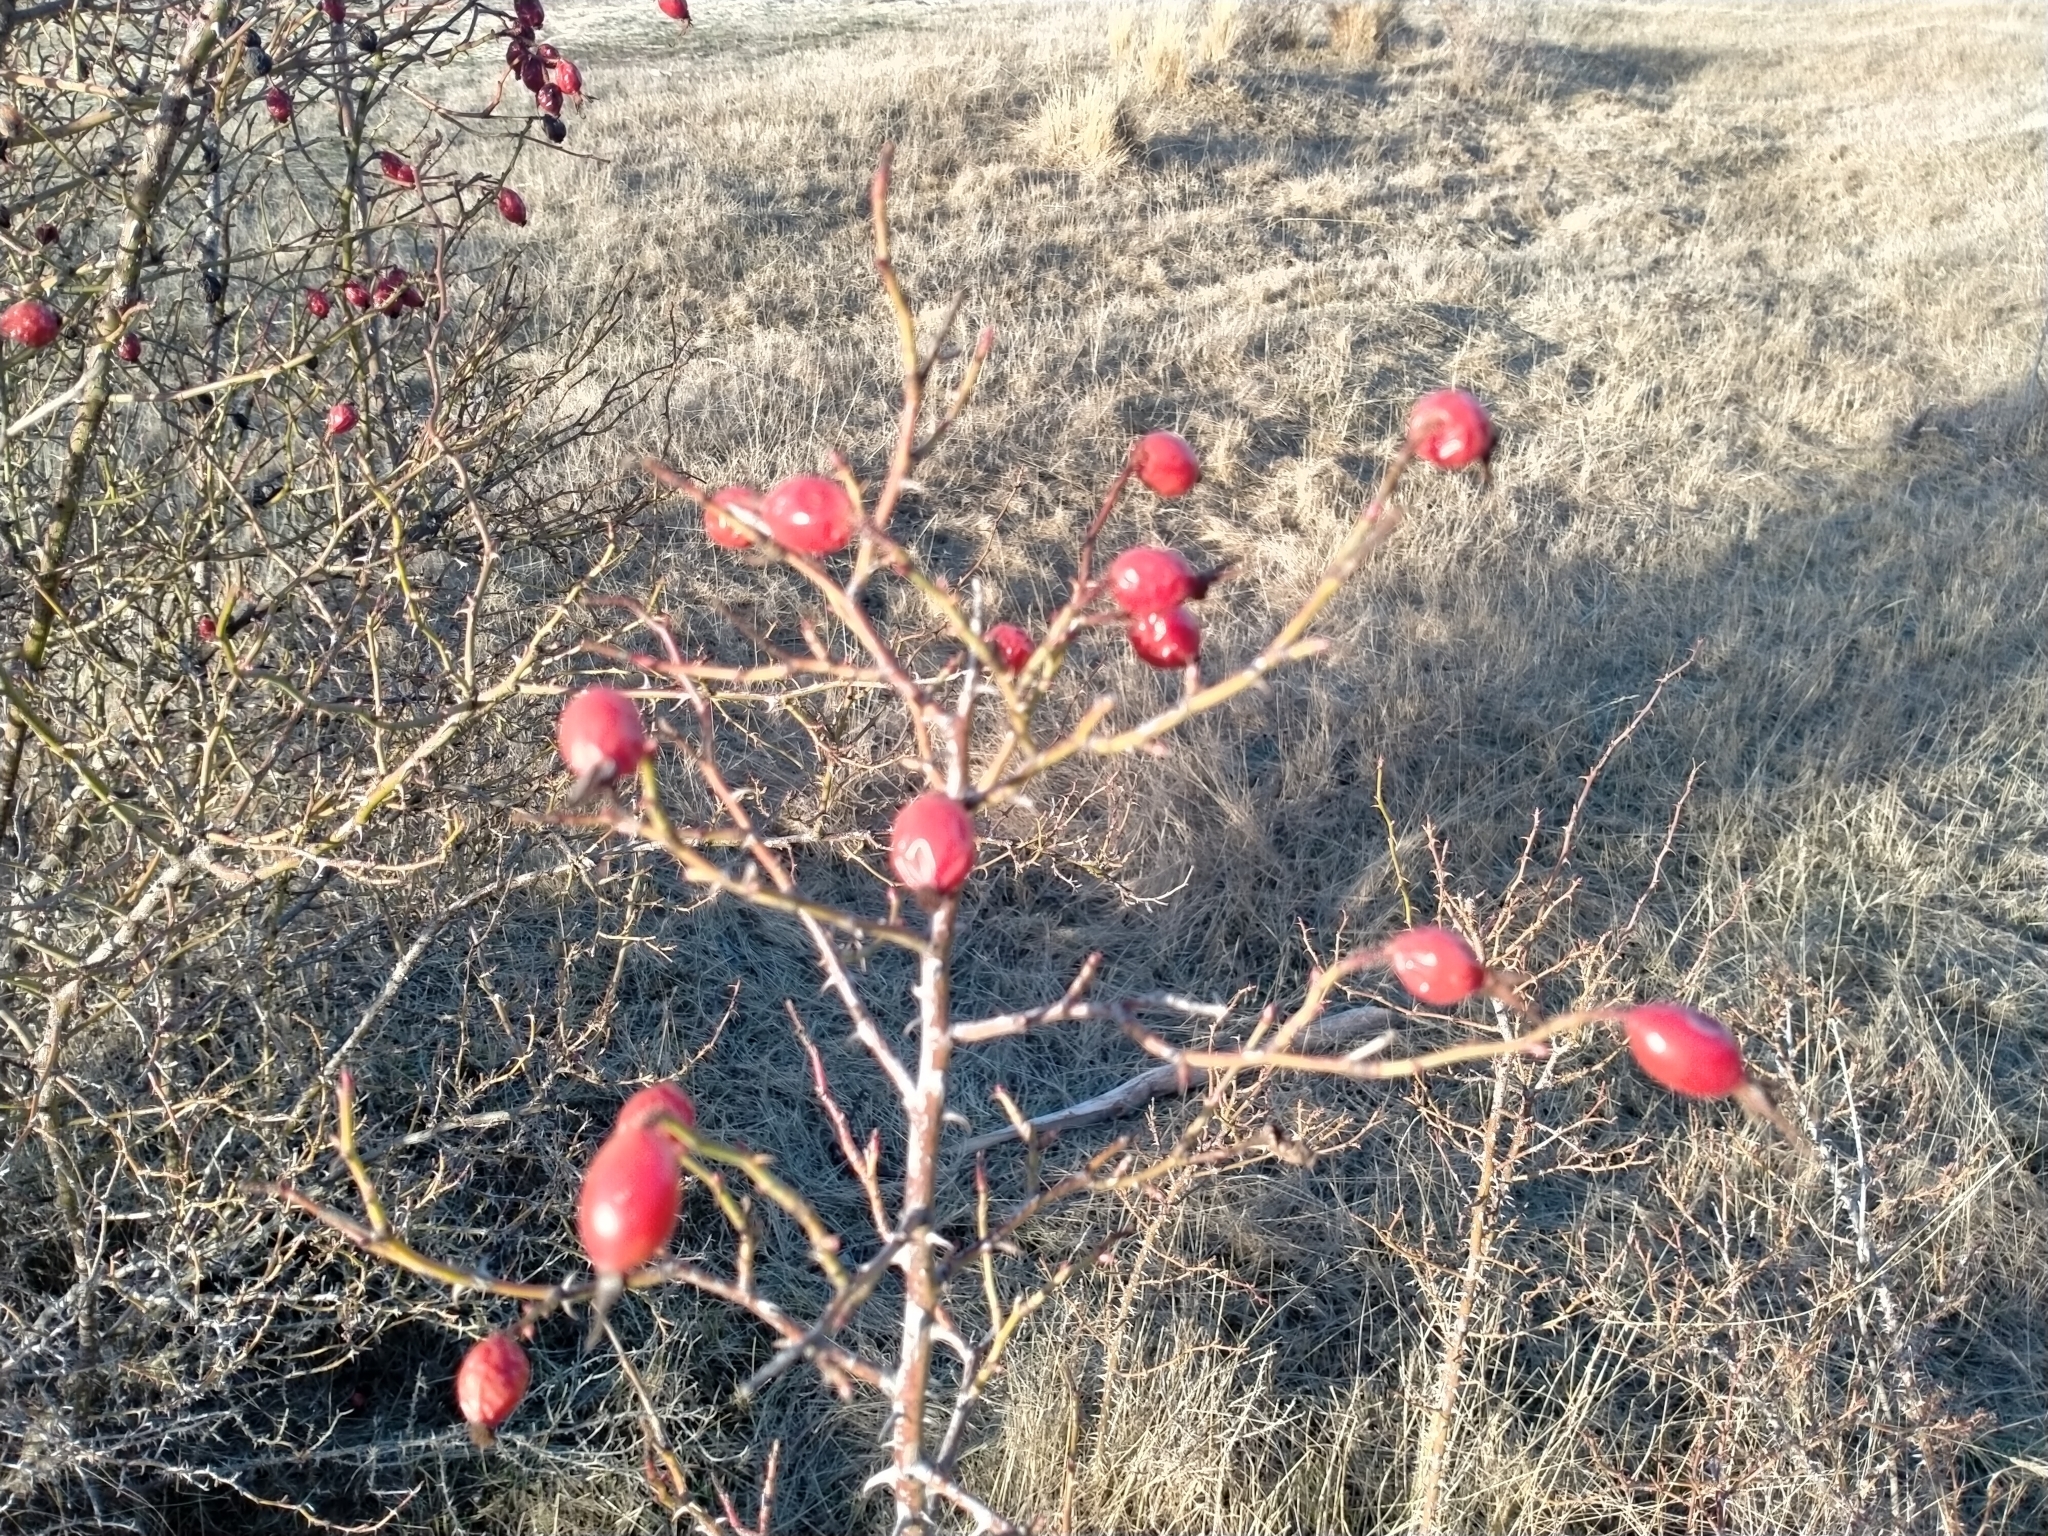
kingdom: Plantae
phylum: Tracheophyta
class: Magnoliopsida
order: Rosales
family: Rosaceae
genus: Rosa
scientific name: Rosa rubiginosa
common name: Sweet-briar
